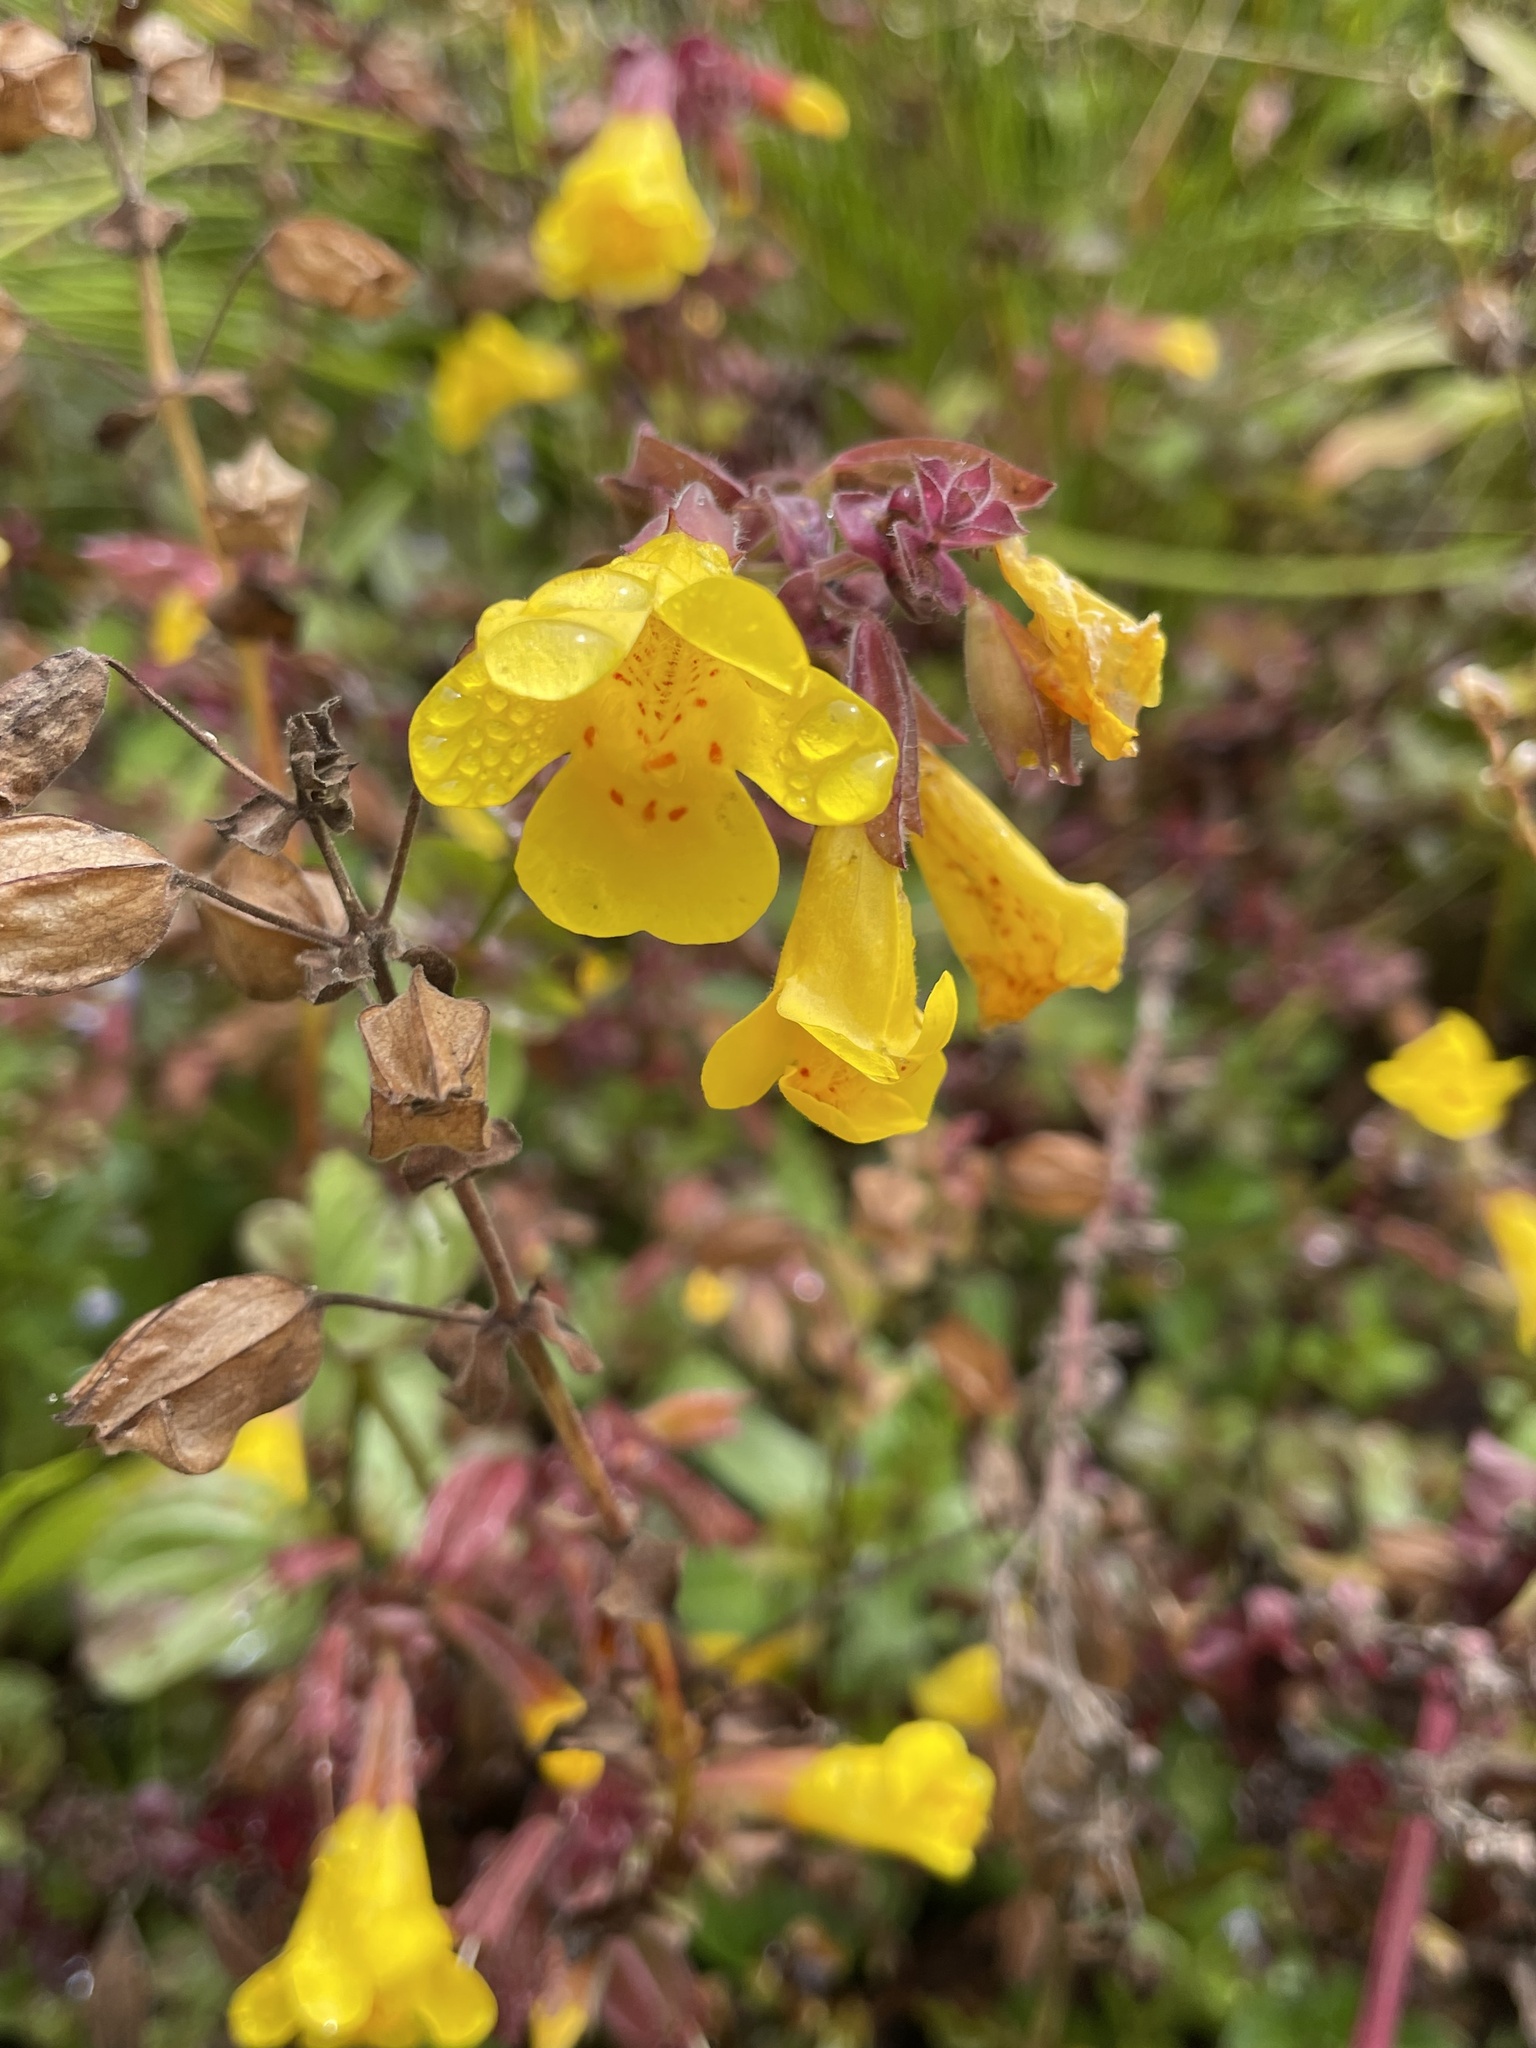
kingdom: Plantae
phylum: Tracheophyta
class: Magnoliopsida
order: Lamiales
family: Phrymaceae
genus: Erythranthe
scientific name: Erythranthe guttata
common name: Monkeyflower
